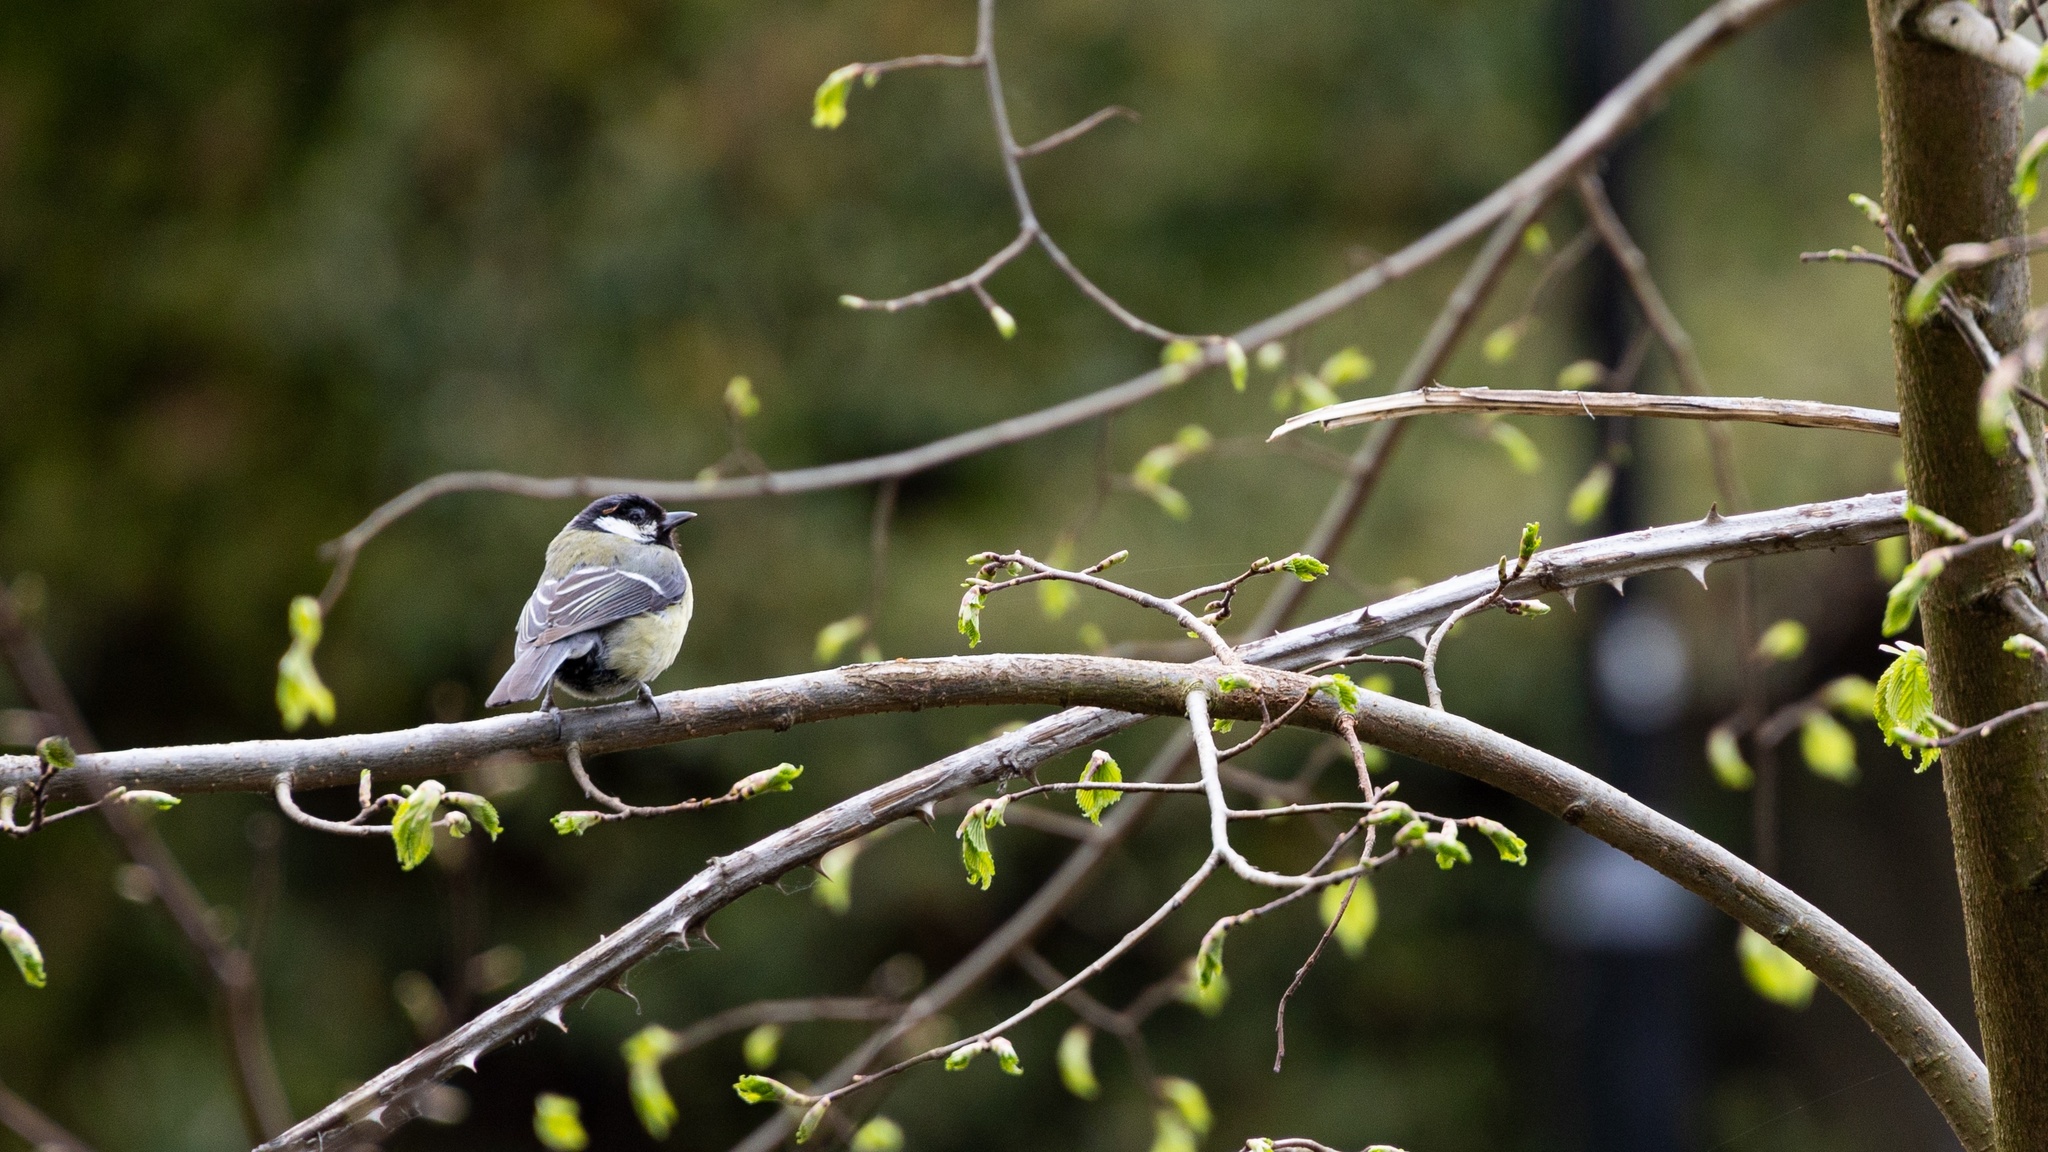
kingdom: Animalia
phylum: Chordata
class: Aves
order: Passeriformes
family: Paridae
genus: Parus
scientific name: Parus major
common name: Great tit
